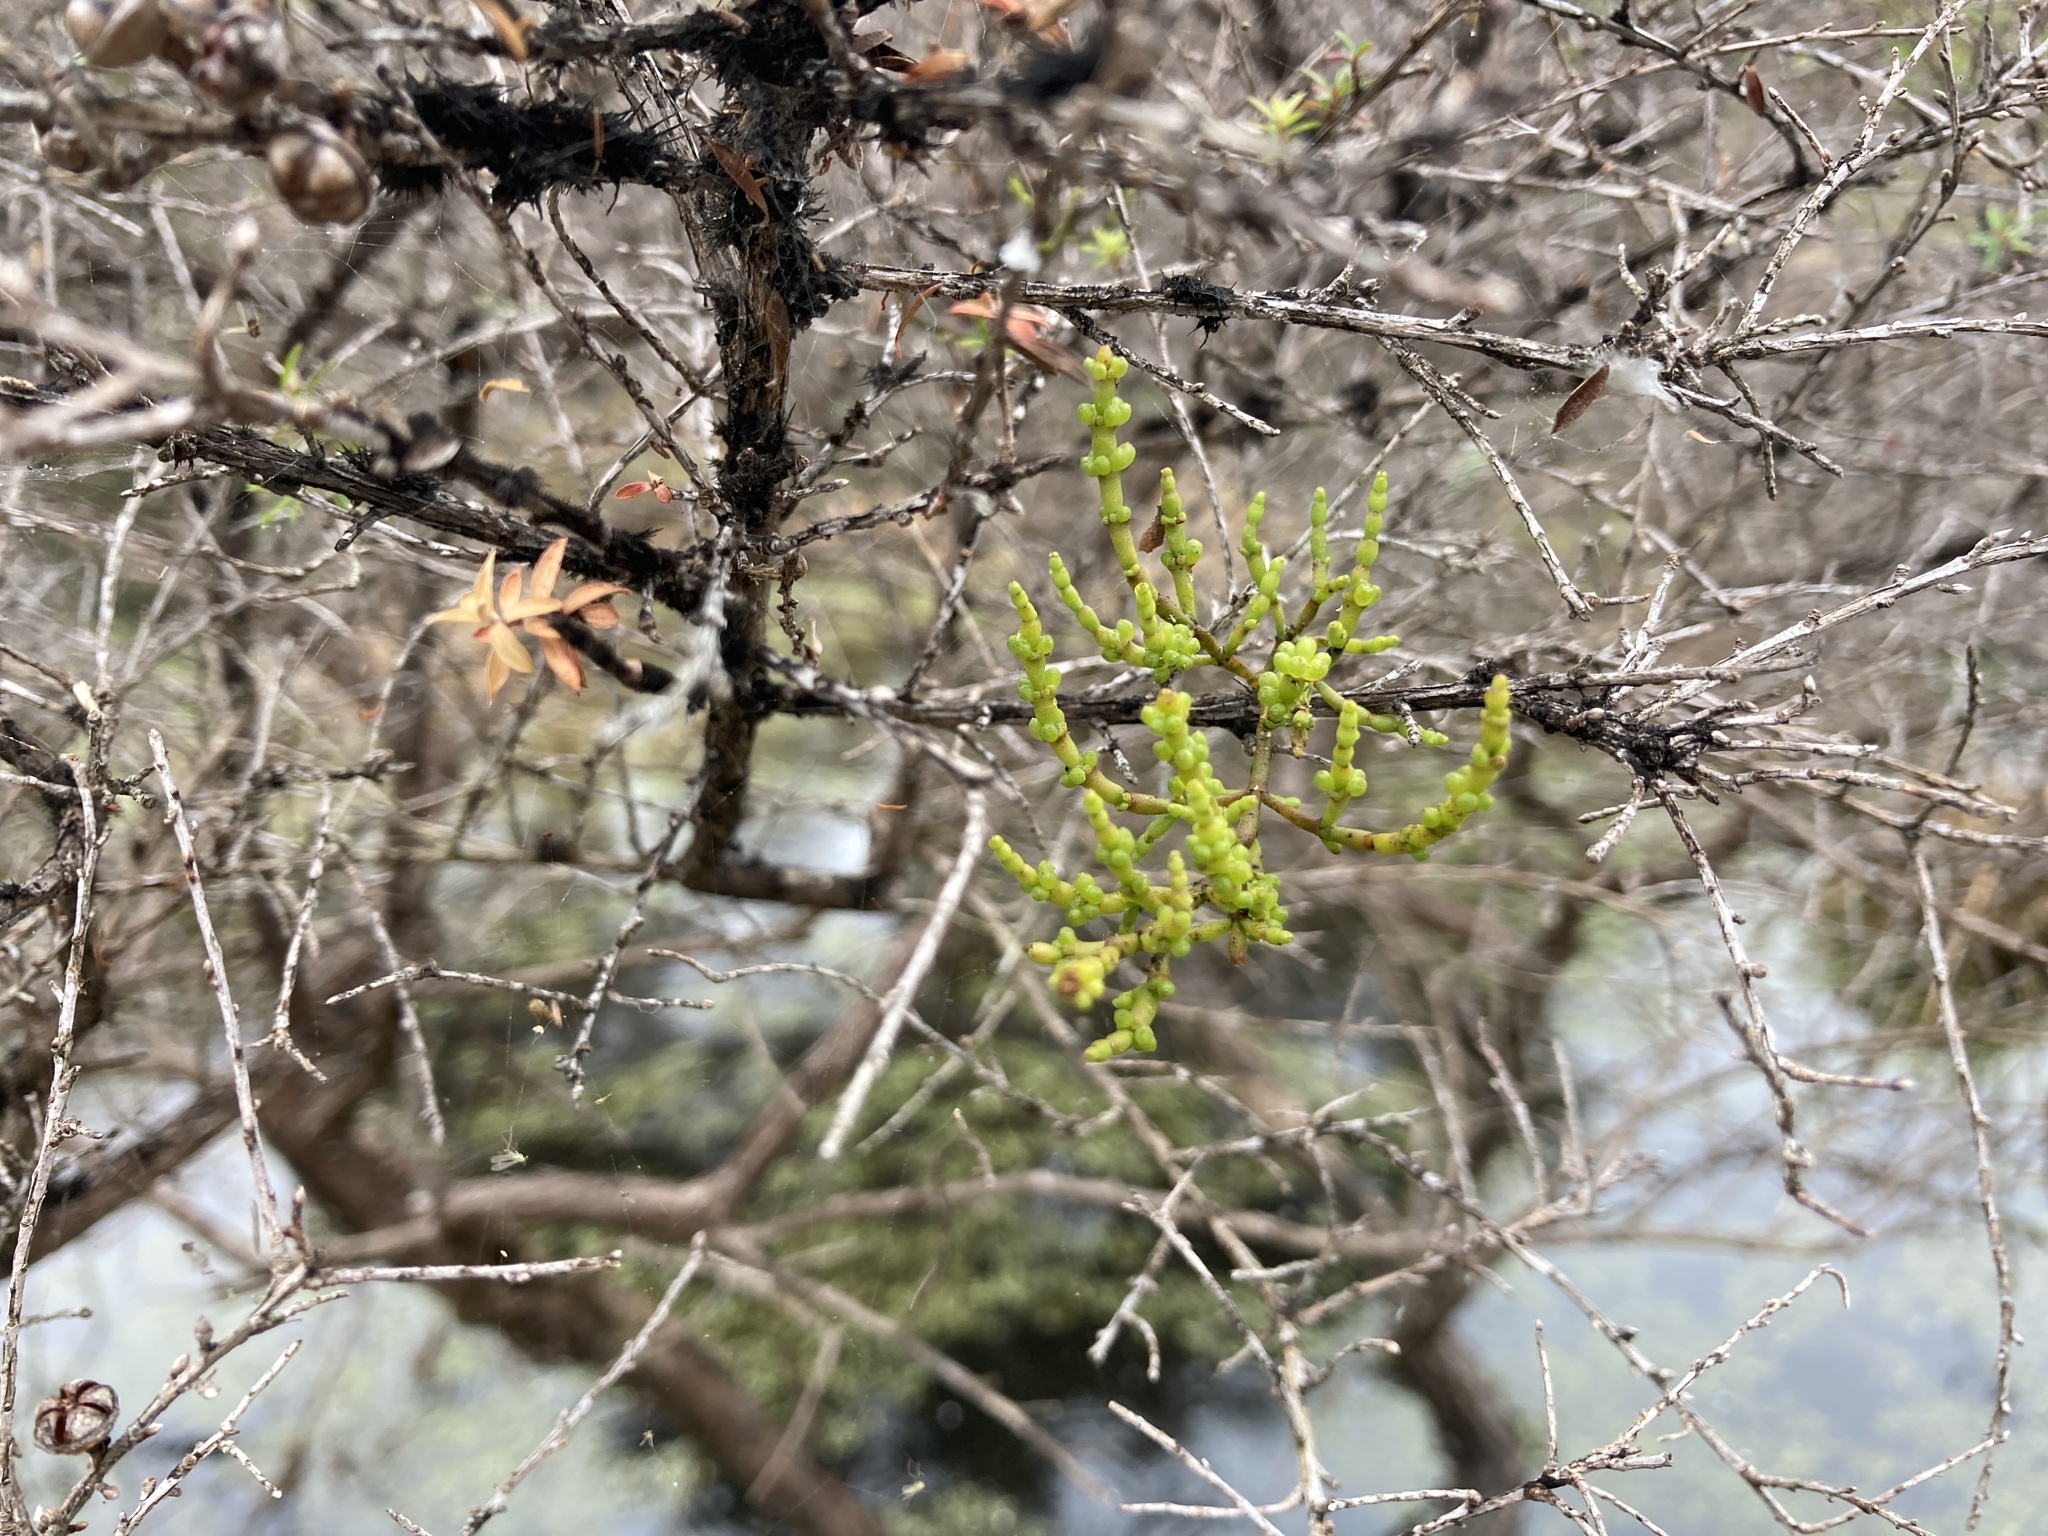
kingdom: Plantae
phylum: Tracheophyta
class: Magnoliopsida
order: Santalales
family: Viscaceae
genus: Korthalsella
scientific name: Korthalsella salicornioides
